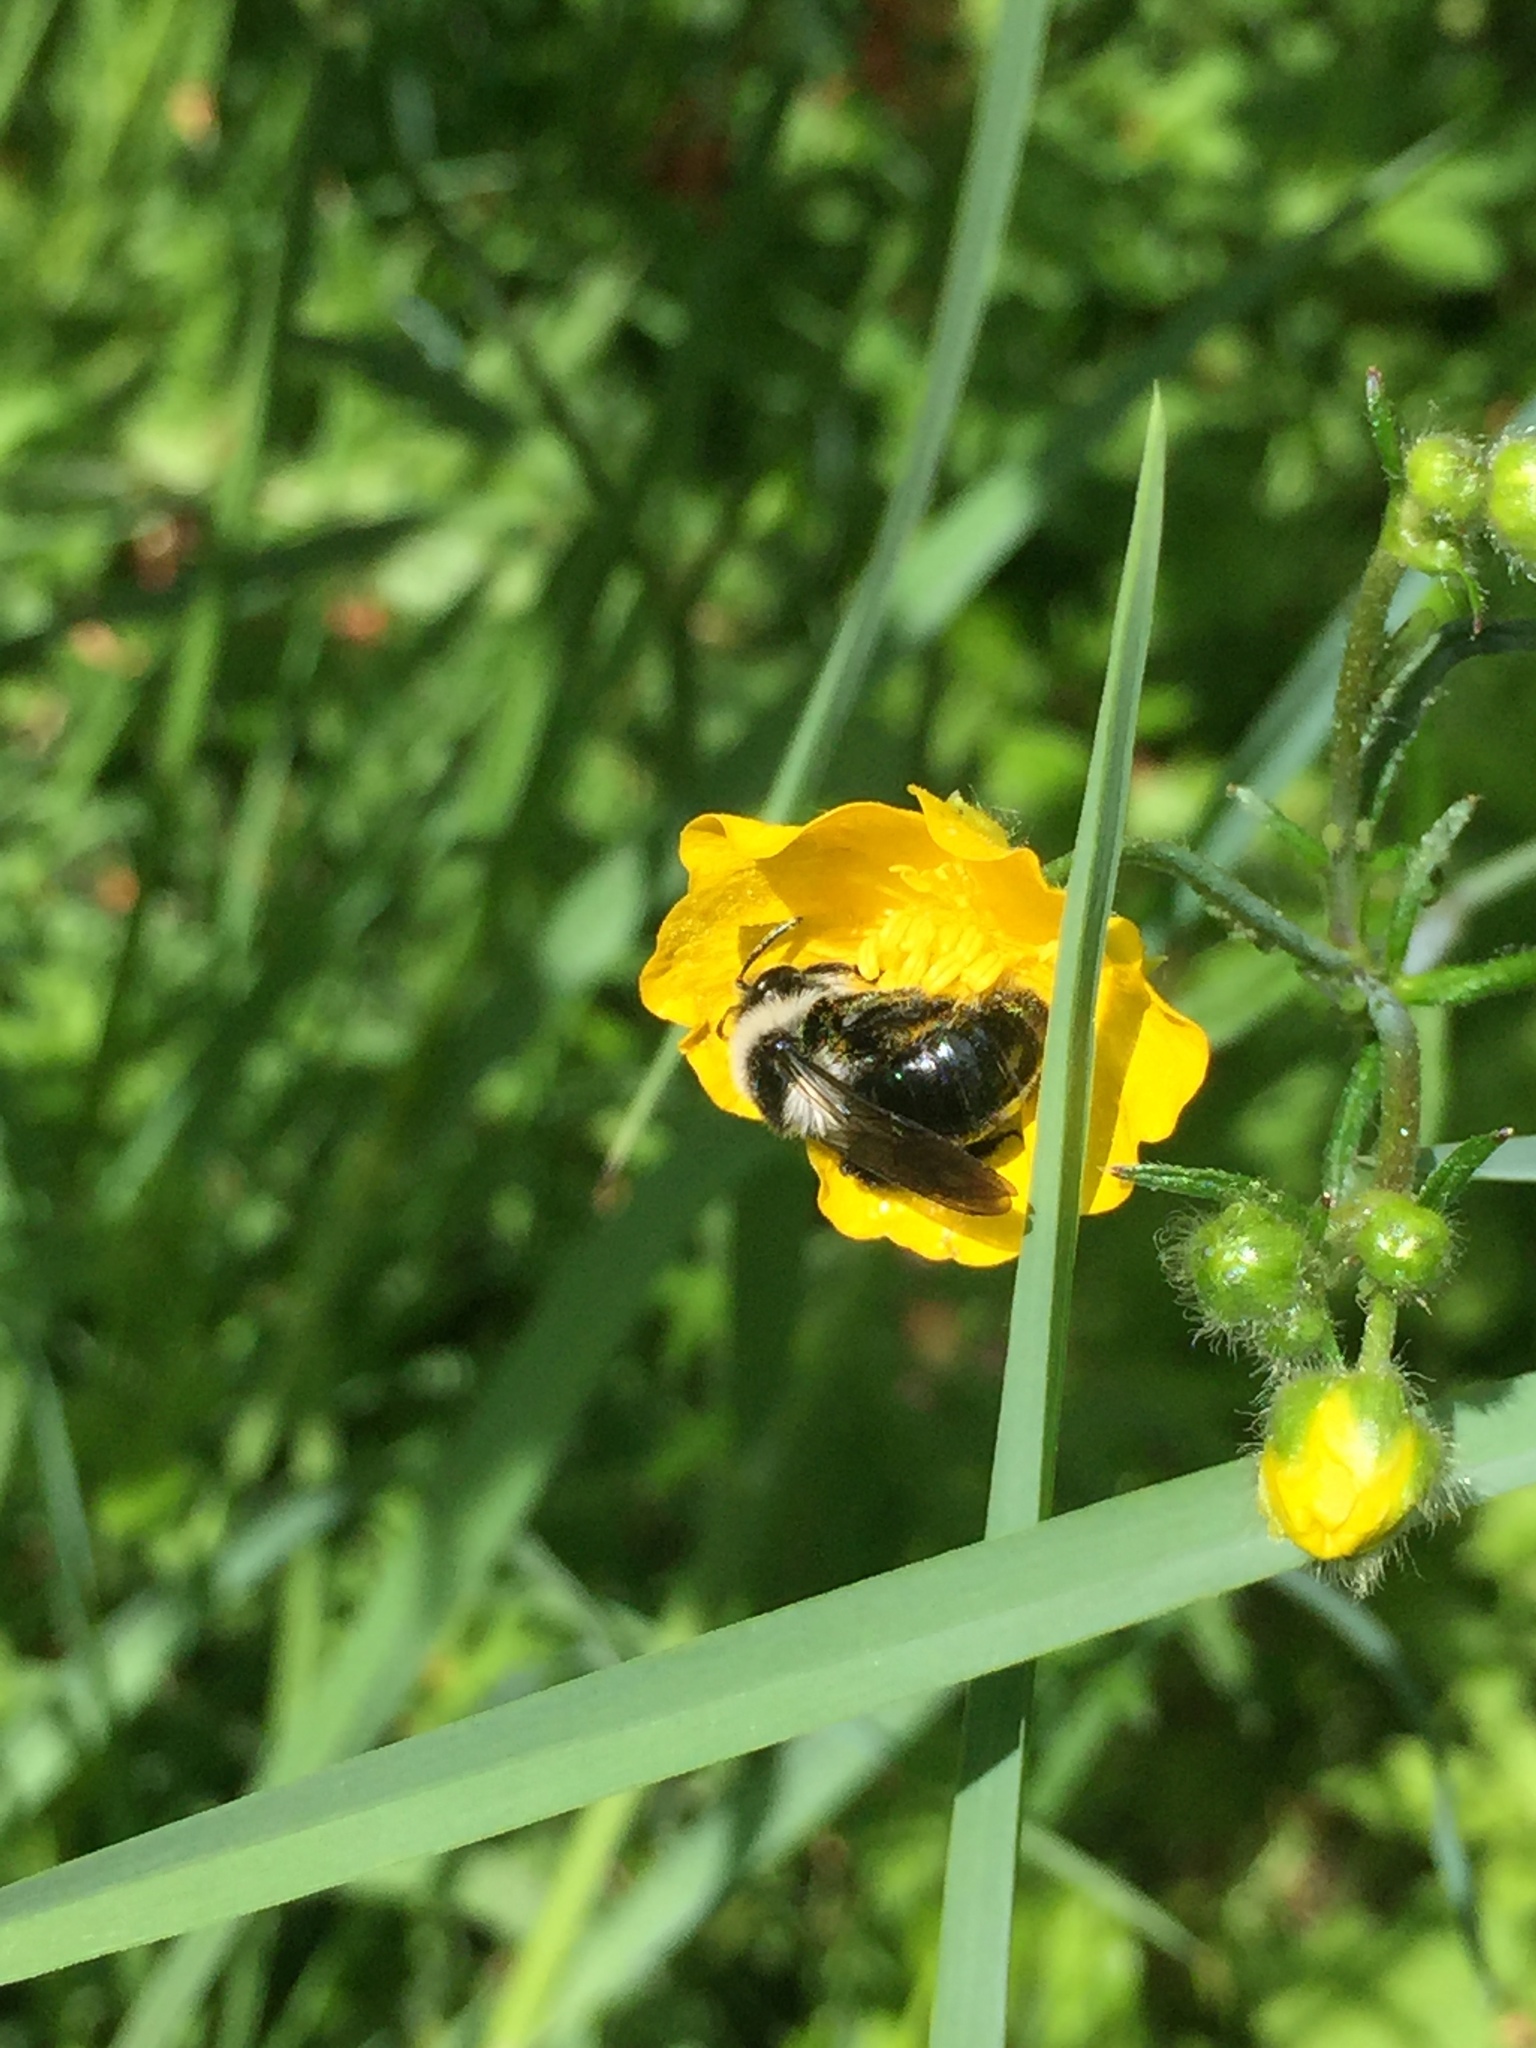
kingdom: Animalia
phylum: Arthropoda
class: Insecta
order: Hymenoptera
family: Andrenidae
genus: Andrena
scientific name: Andrena cineraria
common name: Ashy mining bee
